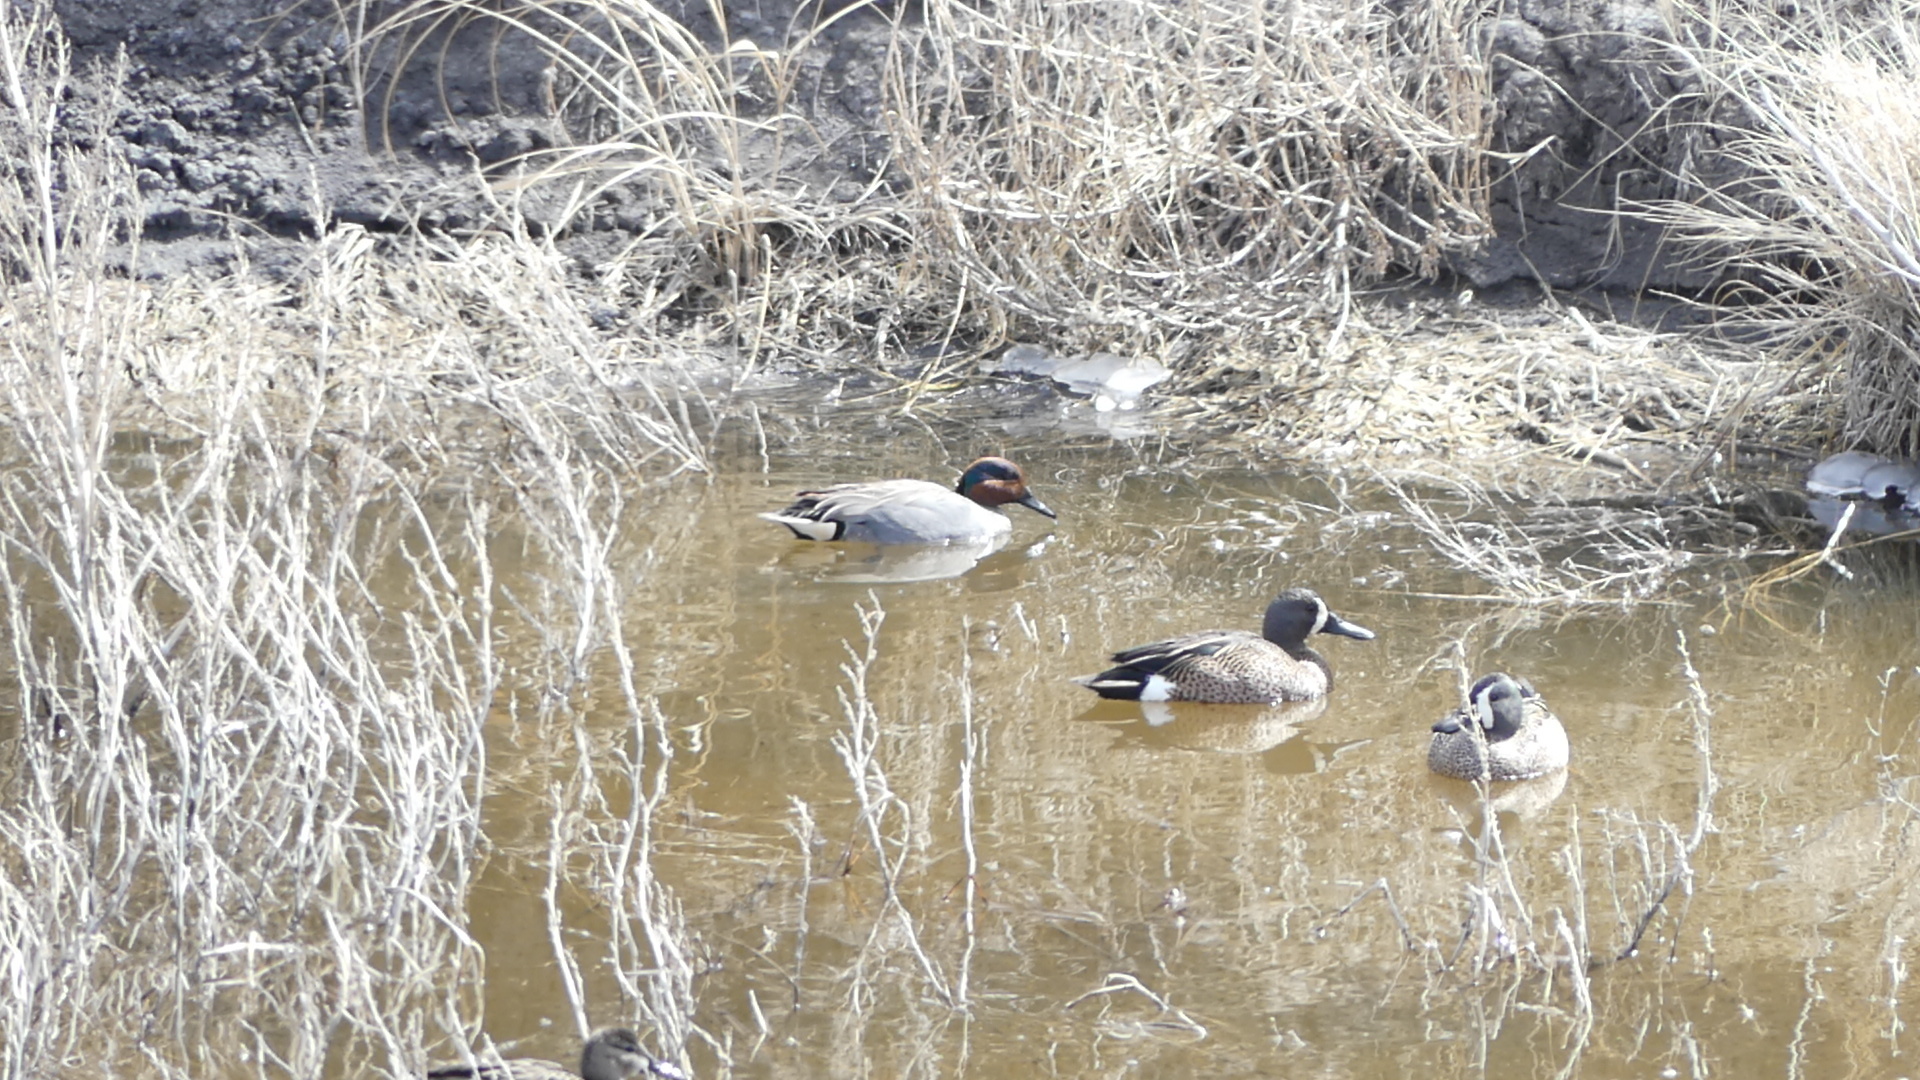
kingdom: Animalia
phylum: Chordata
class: Aves
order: Anseriformes
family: Anatidae
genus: Spatula
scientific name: Spatula discors
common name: Blue-winged teal
